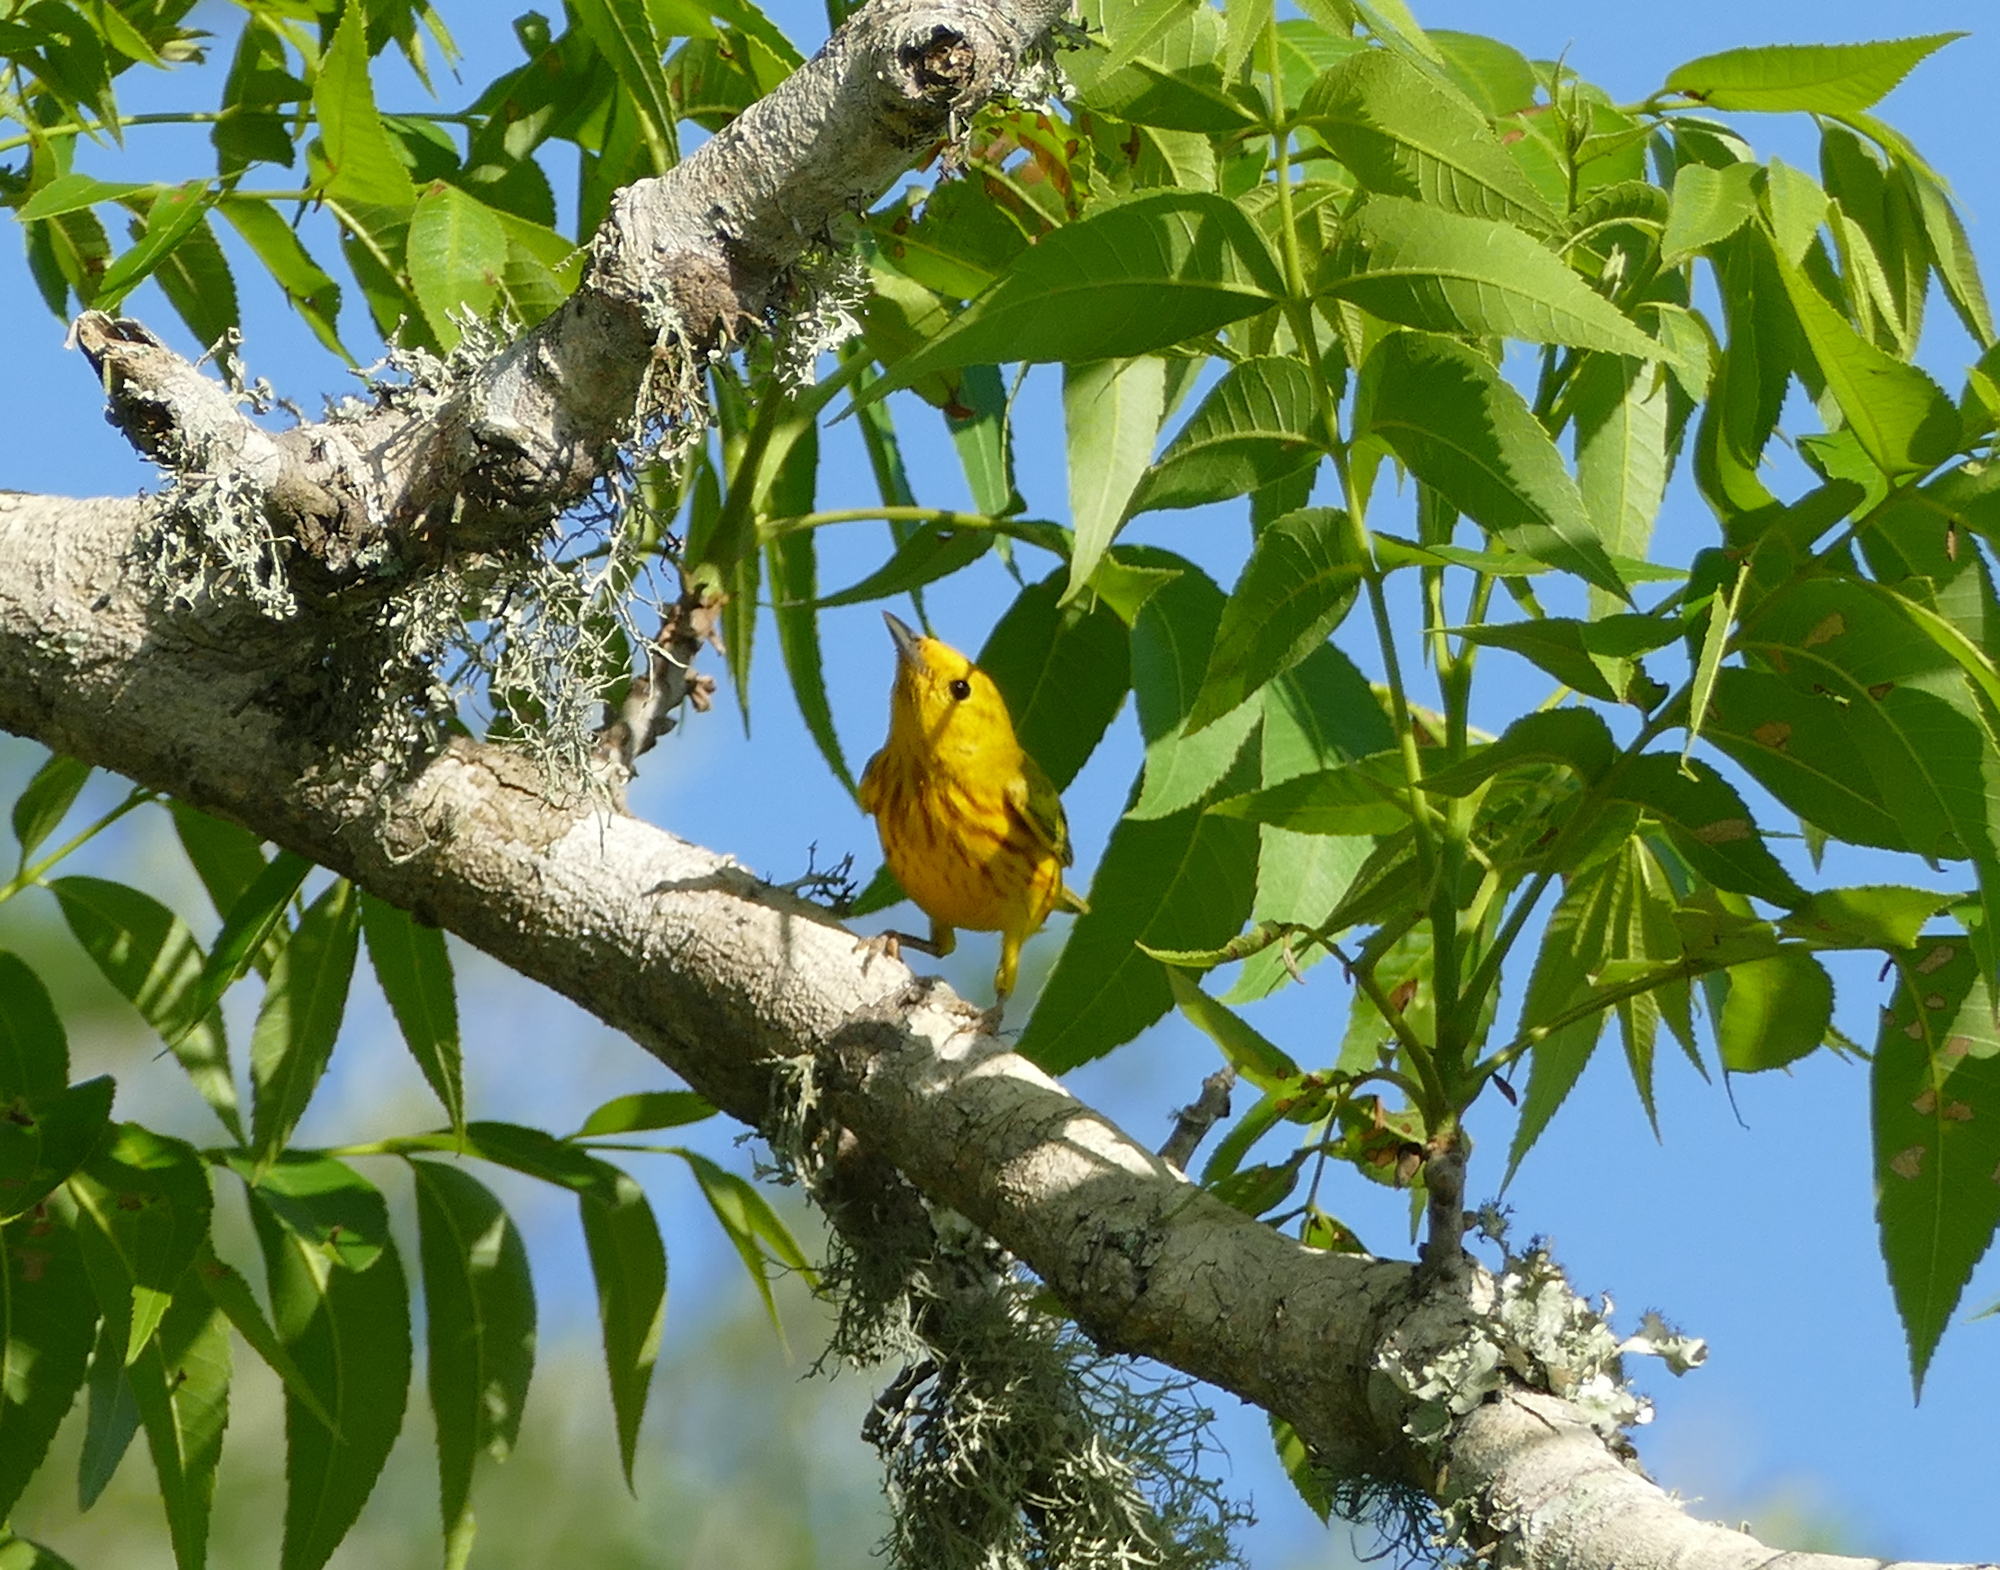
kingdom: Animalia
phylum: Chordata
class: Aves
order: Passeriformes
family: Parulidae
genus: Setophaga
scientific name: Setophaga petechia
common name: Yellow warbler
